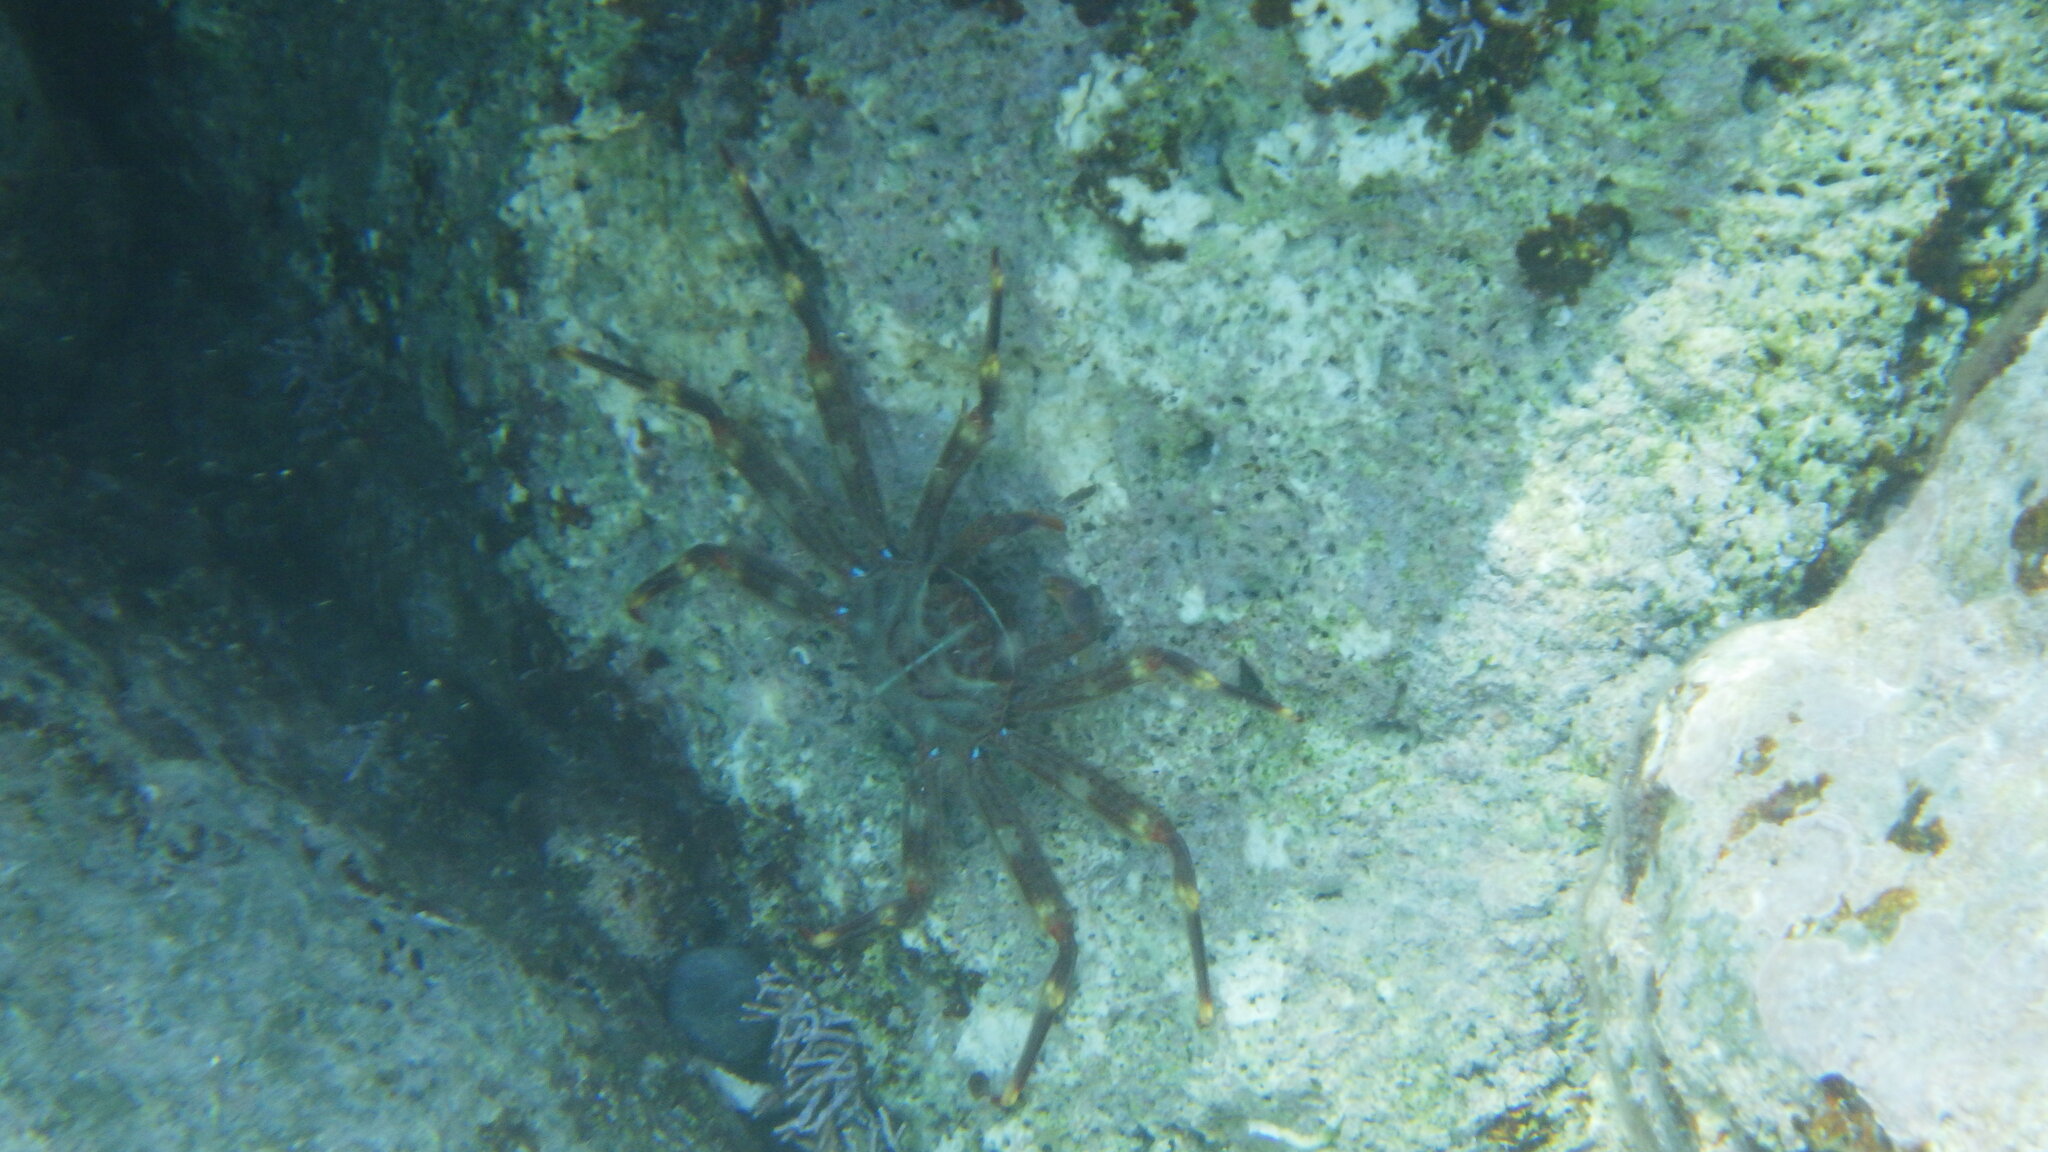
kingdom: Animalia
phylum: Arthropoda
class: Malacostraca
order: Decapoda
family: Percnidae
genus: Percnon
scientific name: Percnon gibbesi
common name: Nimble spray crab
